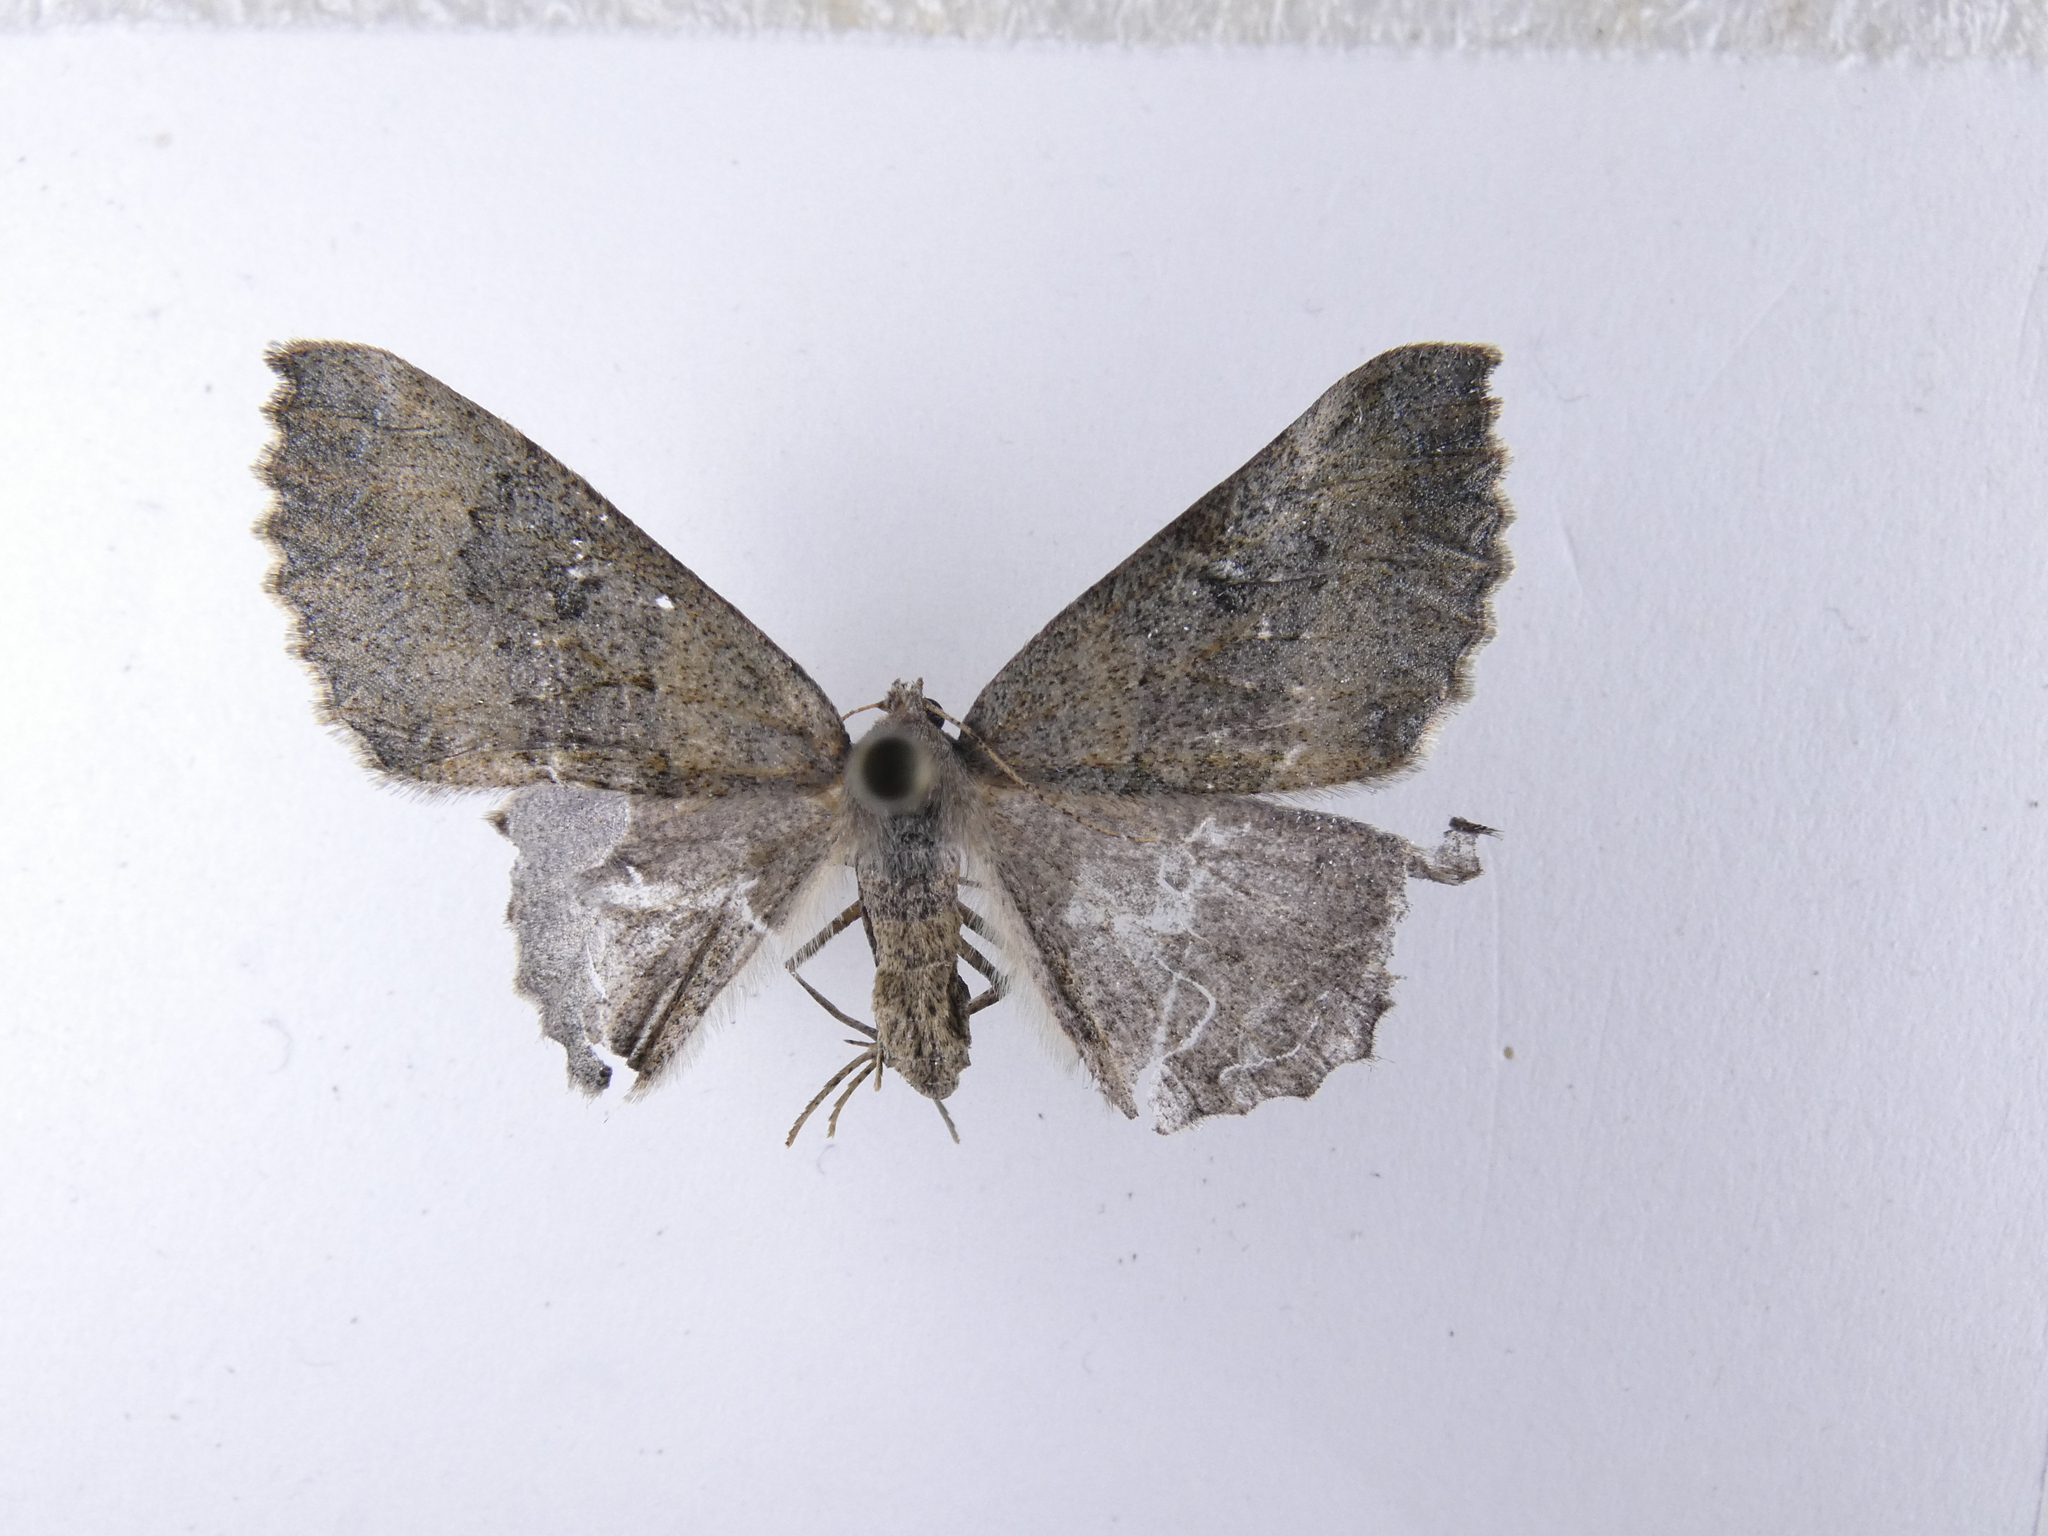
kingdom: Animalia
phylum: Arthropoda
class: Insecta
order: Lepidoptera
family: Geometridae
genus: Cleora
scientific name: Cleora scriptaria
